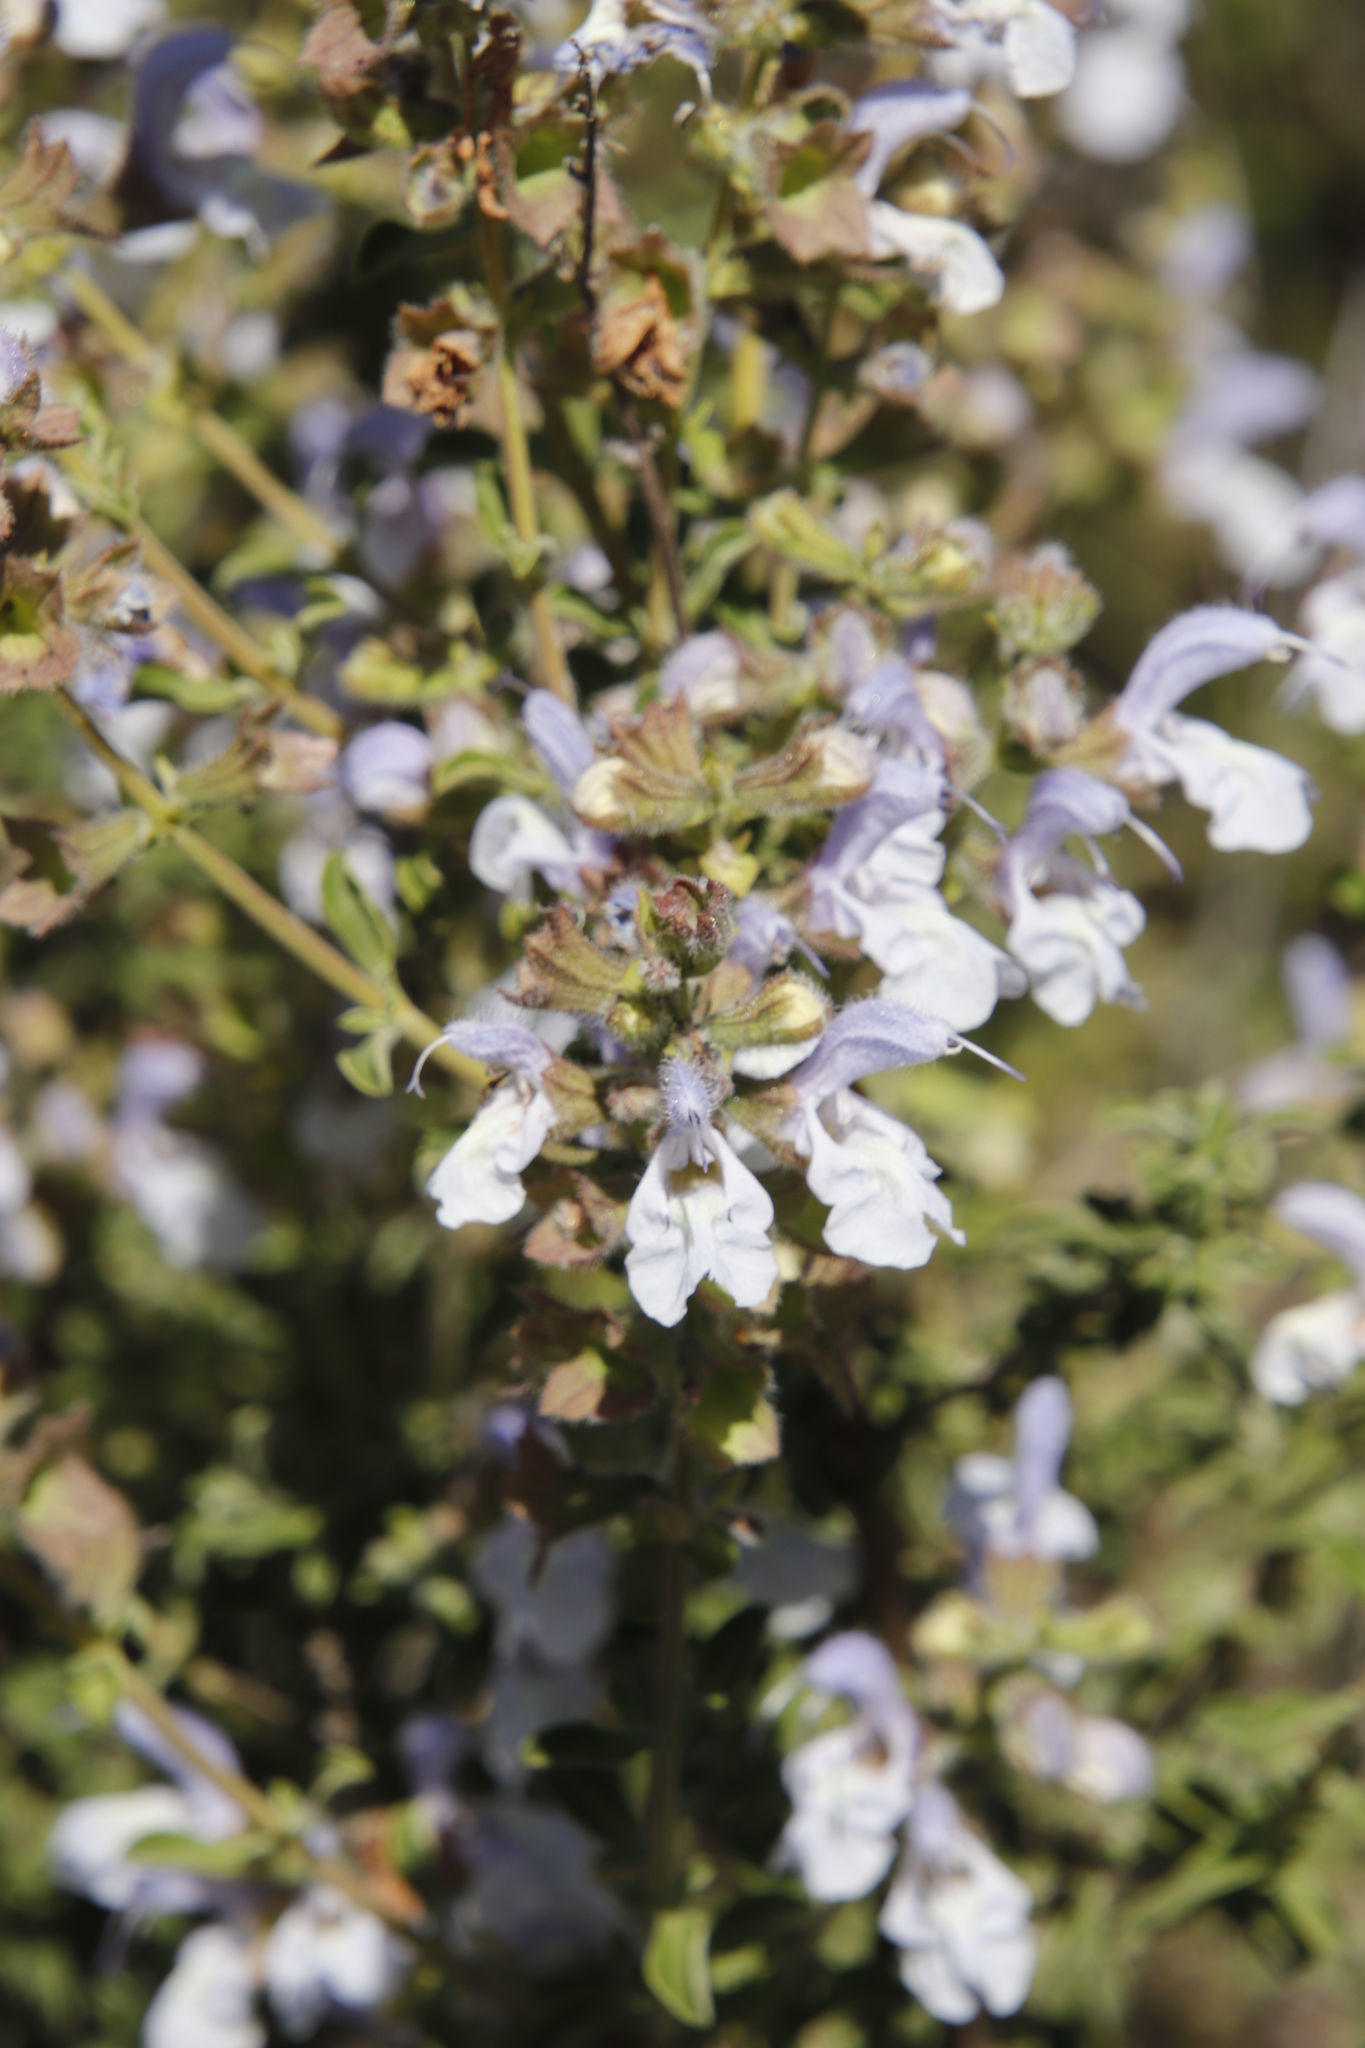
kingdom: Plantae
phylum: Tracheophyta
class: Magnoliopsida
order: Lamiales
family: Lamiaceae
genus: Salvia
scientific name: Salvia dentata
